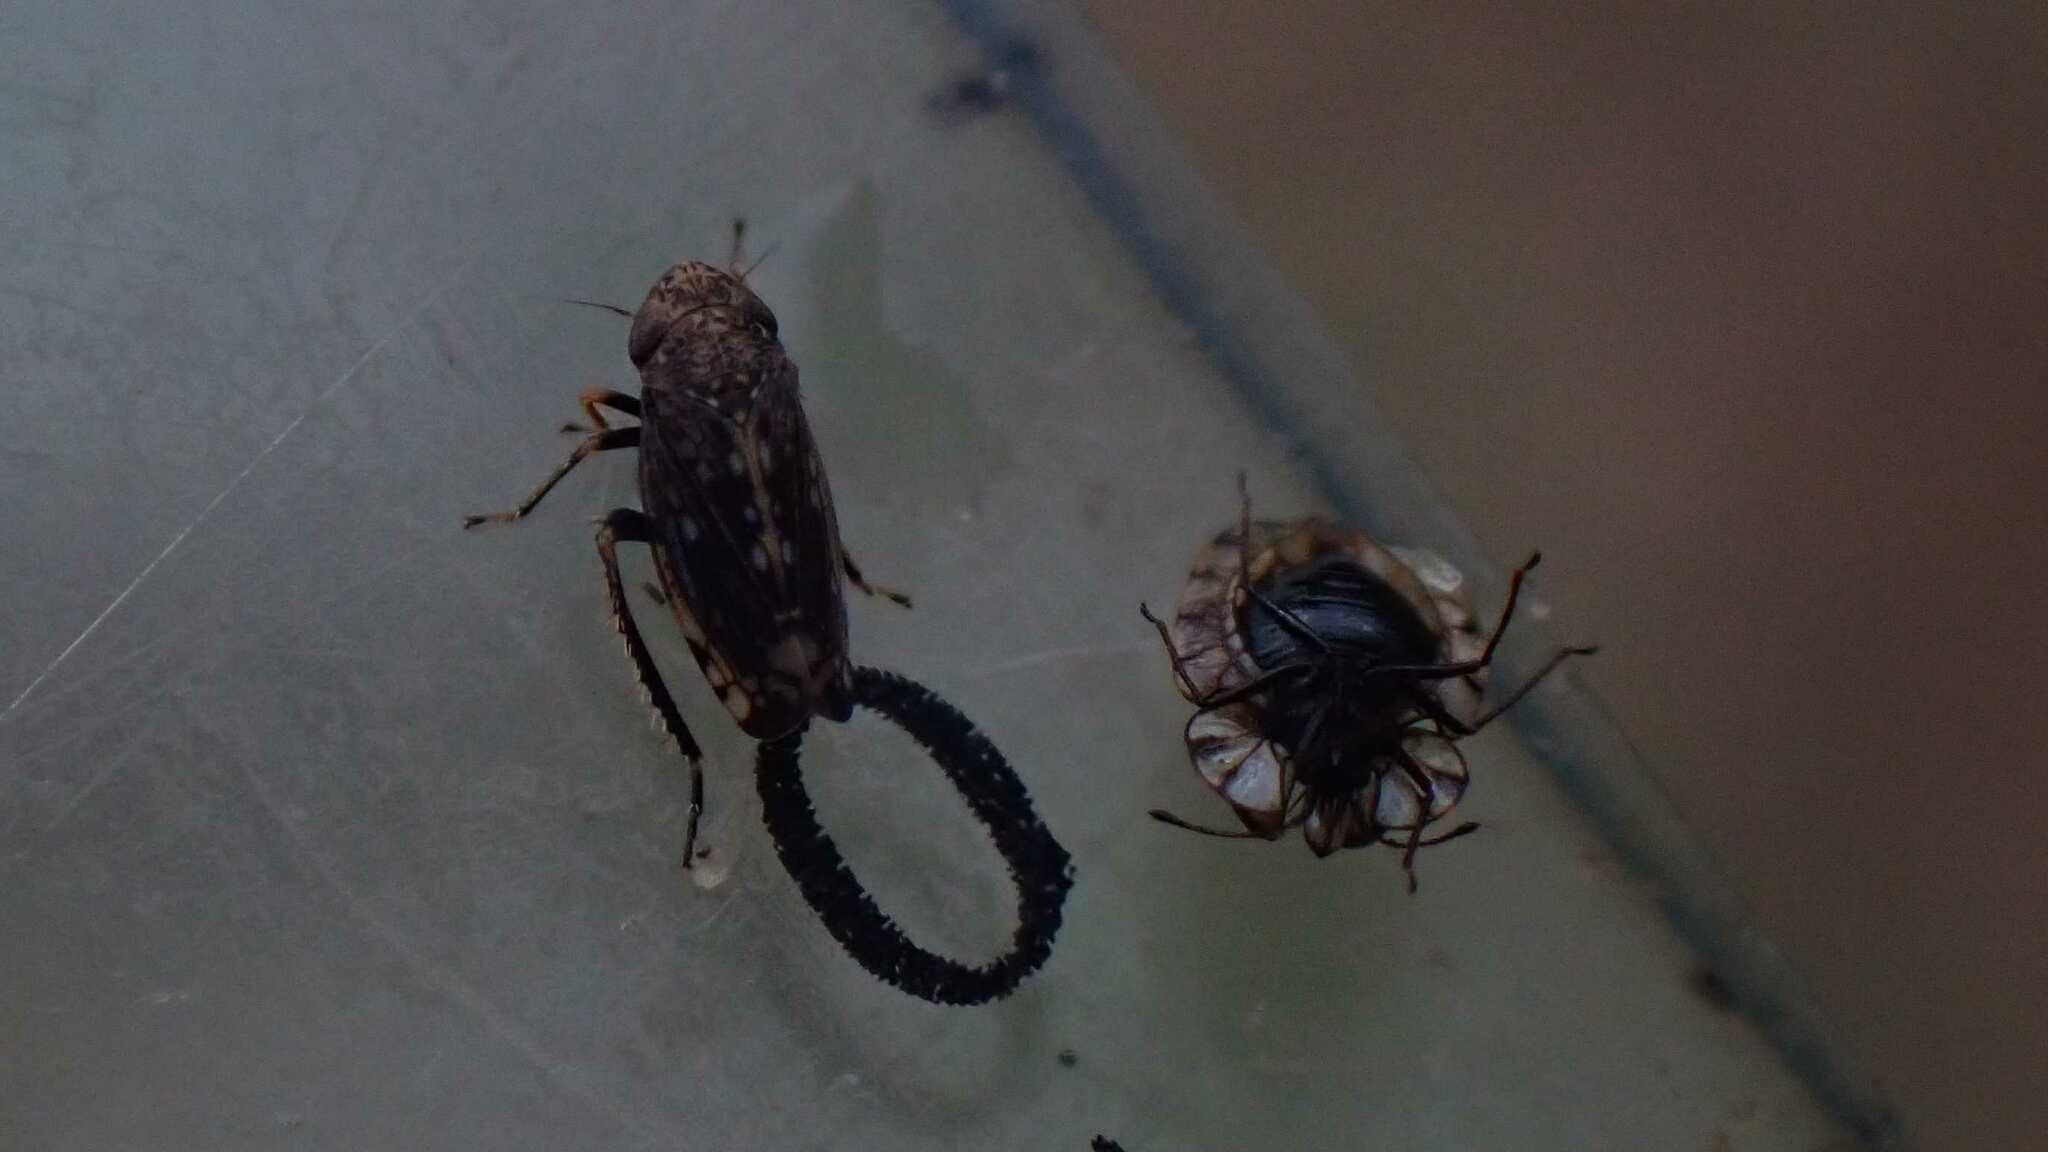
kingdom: Animalia
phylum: Arthropoda
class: Insecta
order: Hemiptera
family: Tingidae
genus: Galeatus
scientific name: Galeatus maculatus
